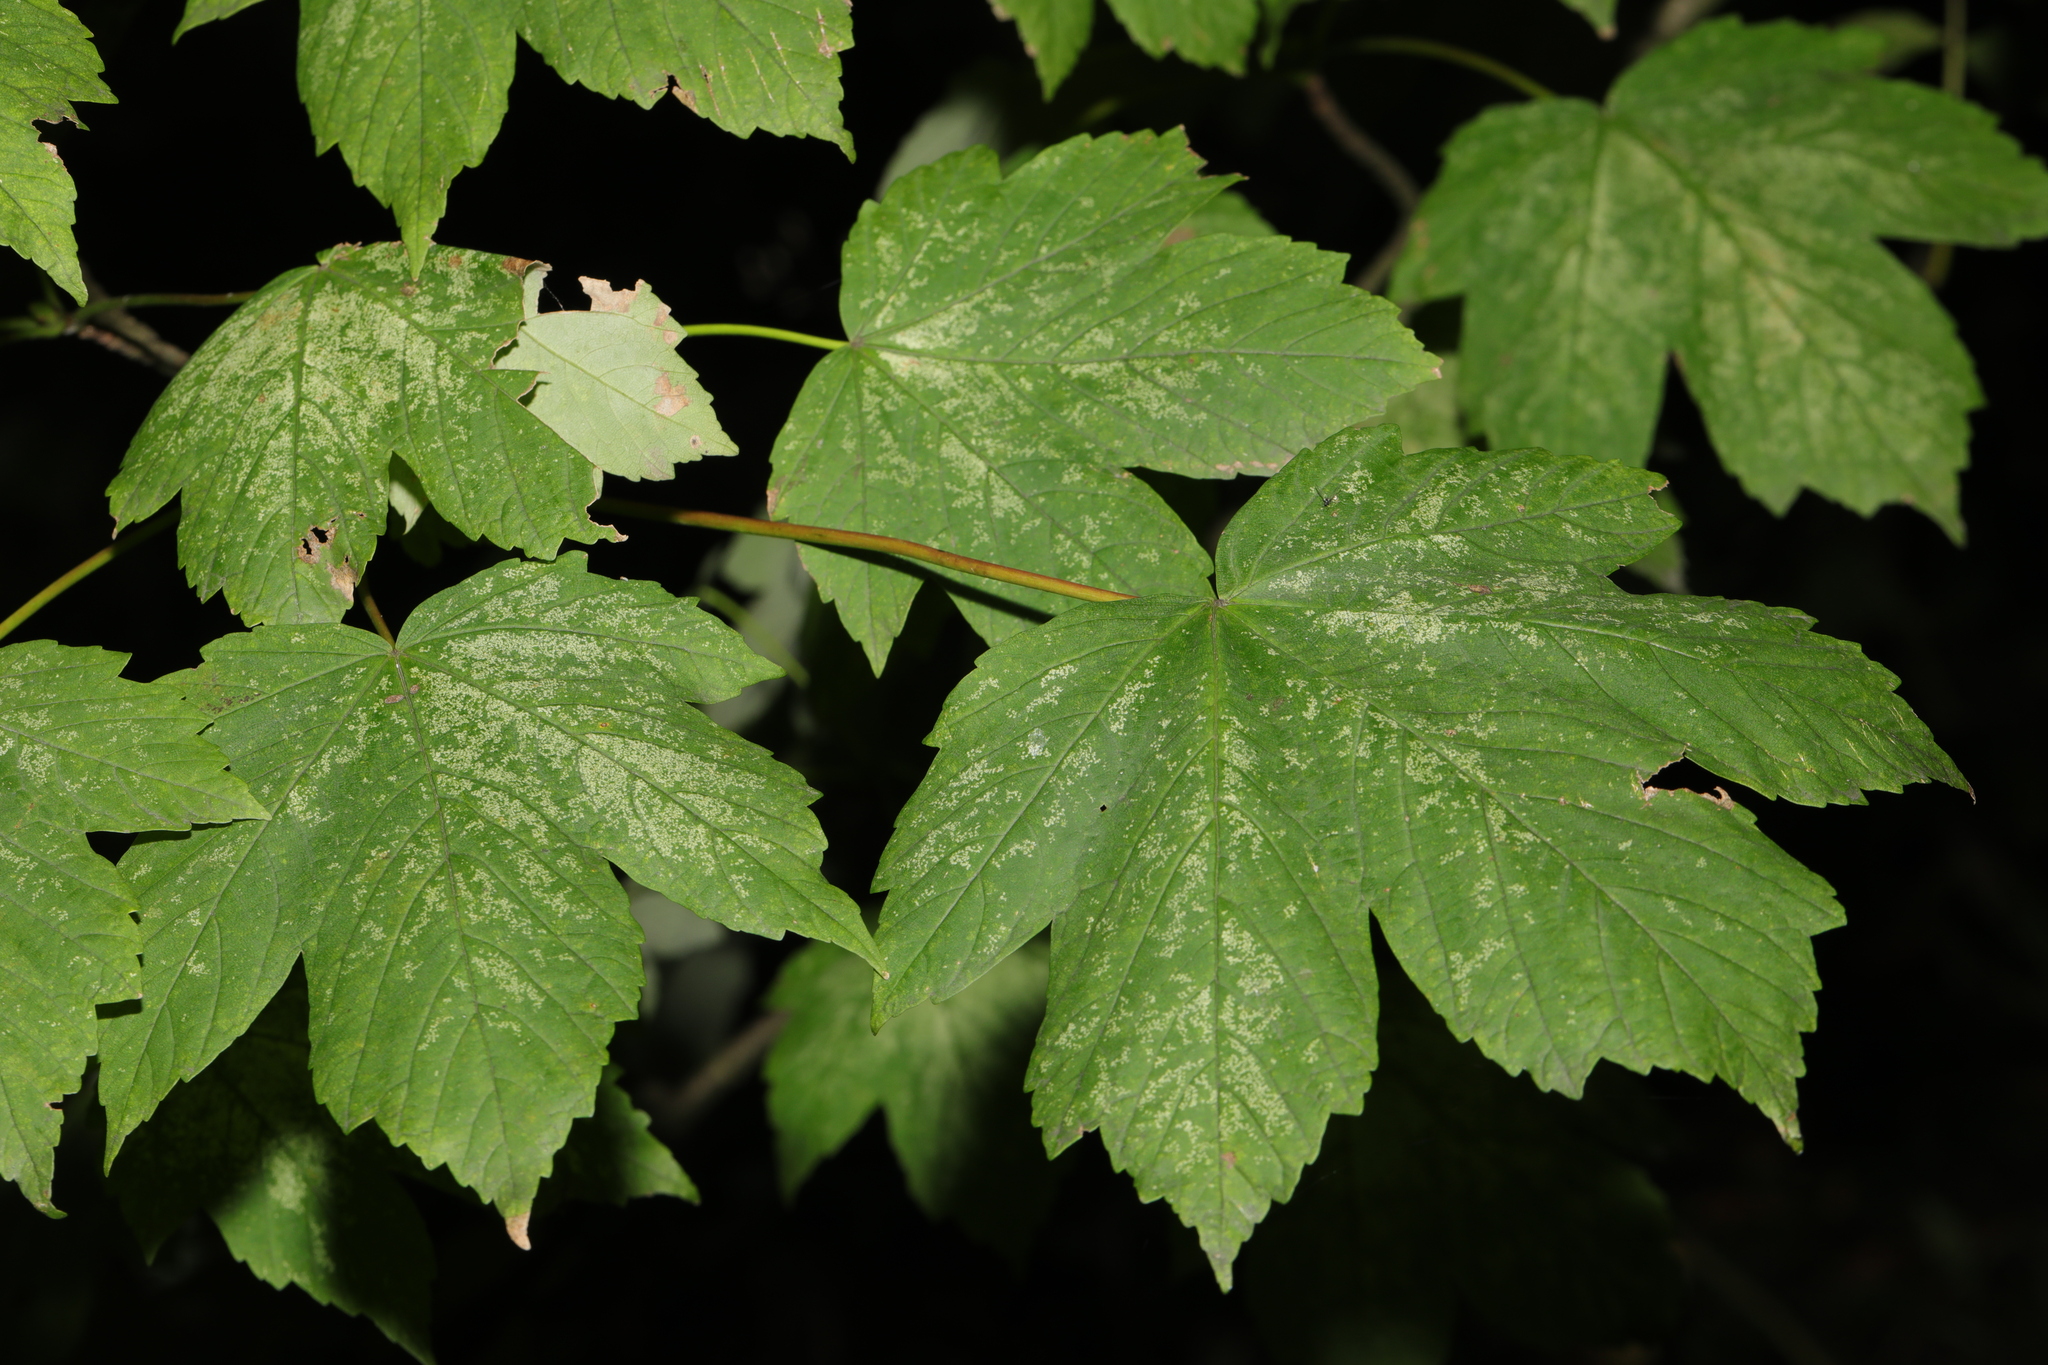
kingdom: Plantae
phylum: Tracheophyta
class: Magnoliopsida
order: Sapindales
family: Sapindaceae
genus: Acer
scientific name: Acer pseudoplatanus
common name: Sycamore
